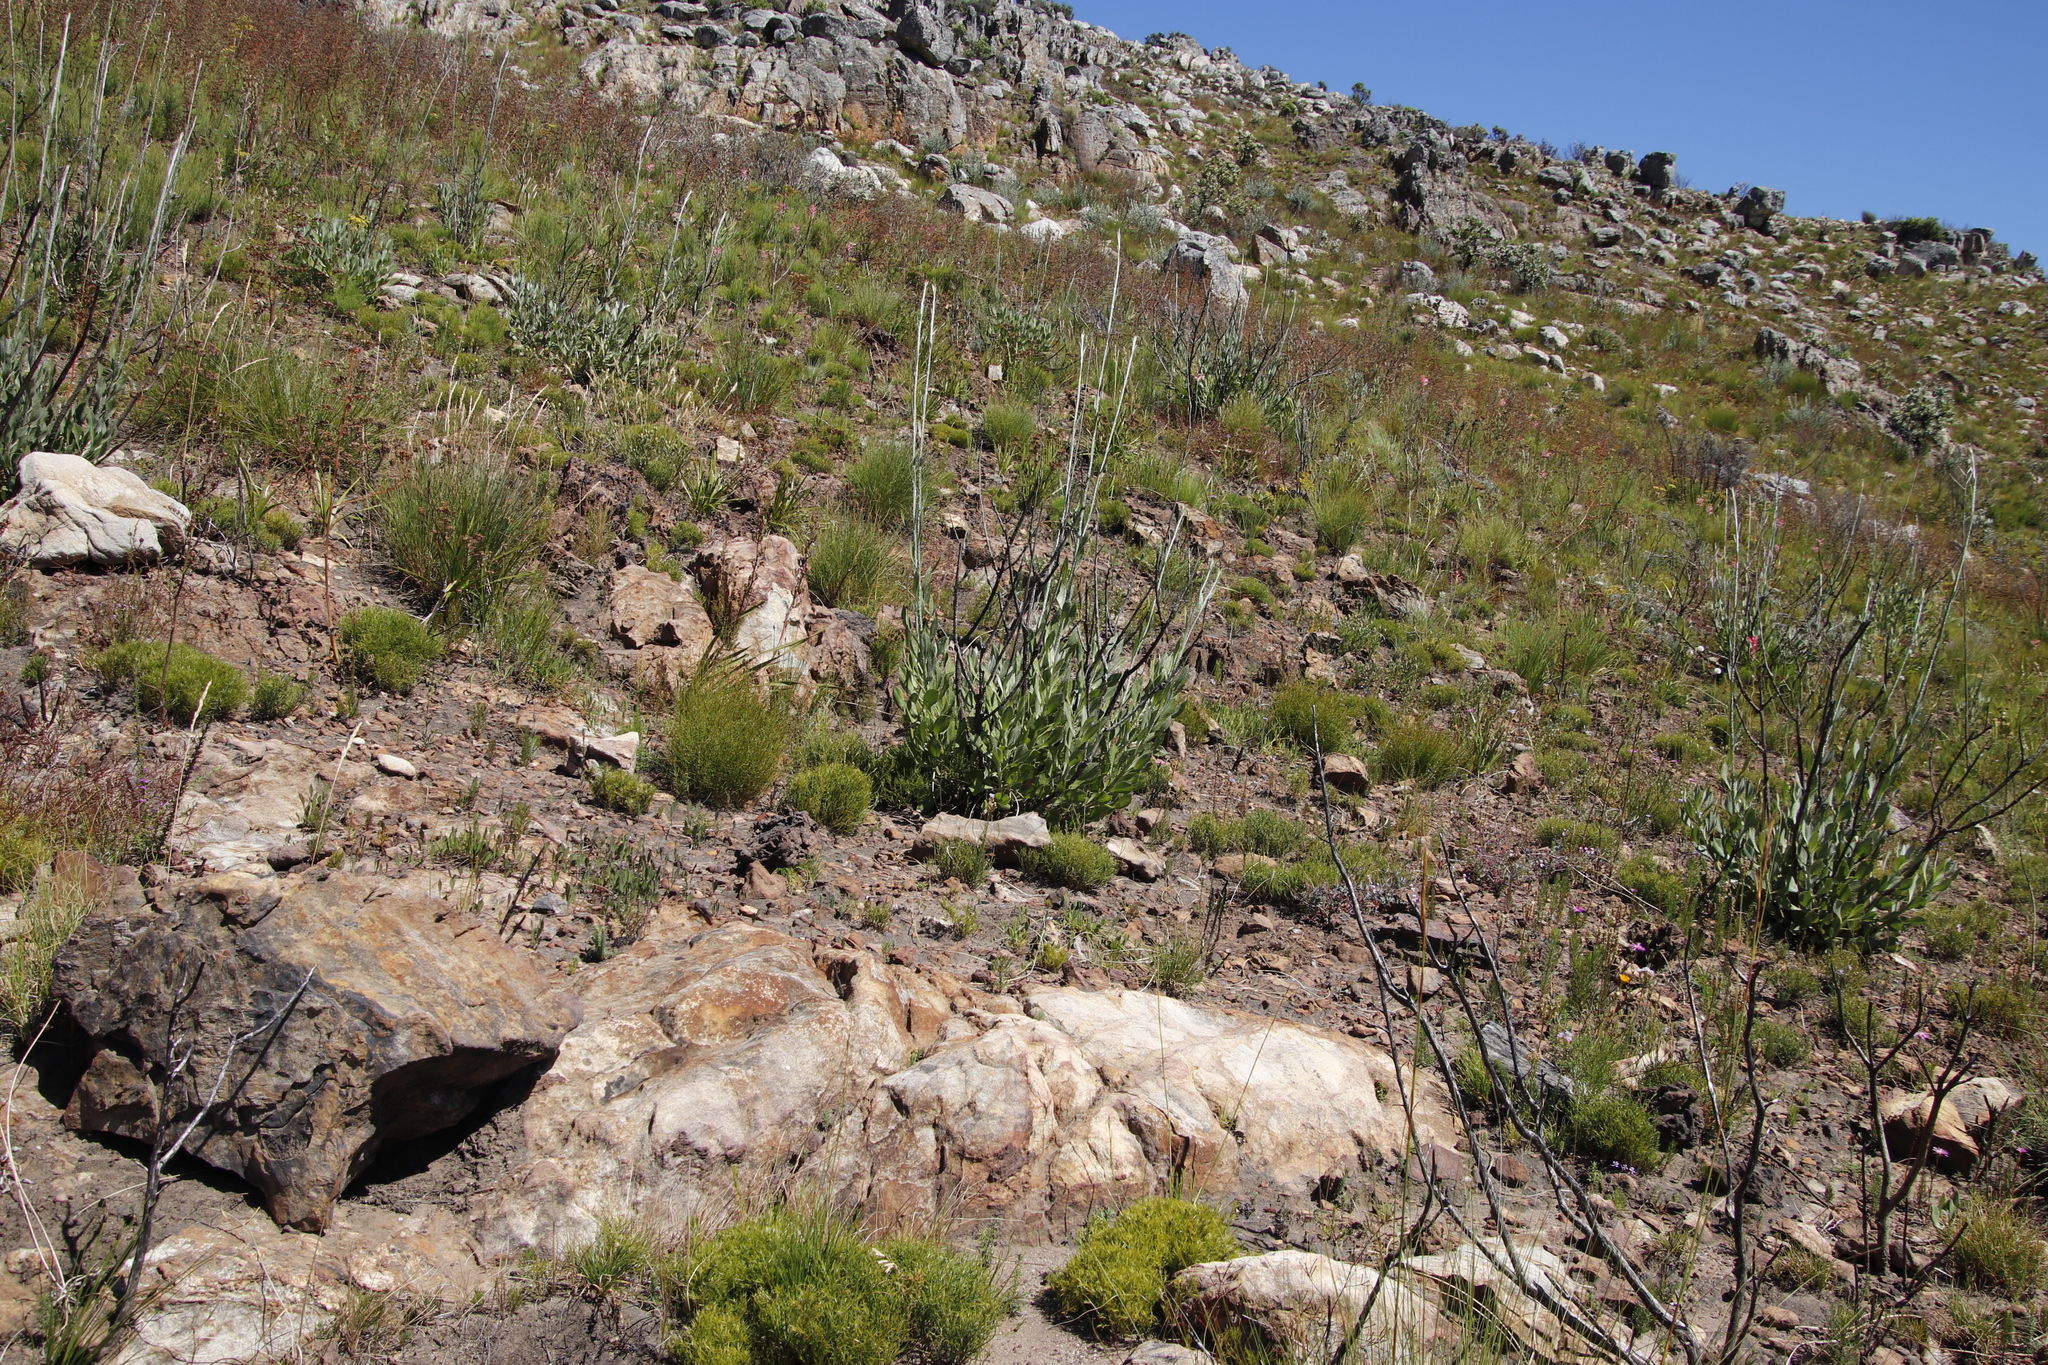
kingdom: Plantae
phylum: Tracheophyta
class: Magnoliopsida
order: Asterales
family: Asteraceae
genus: Osteospermum
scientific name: Osteospermum junceum
